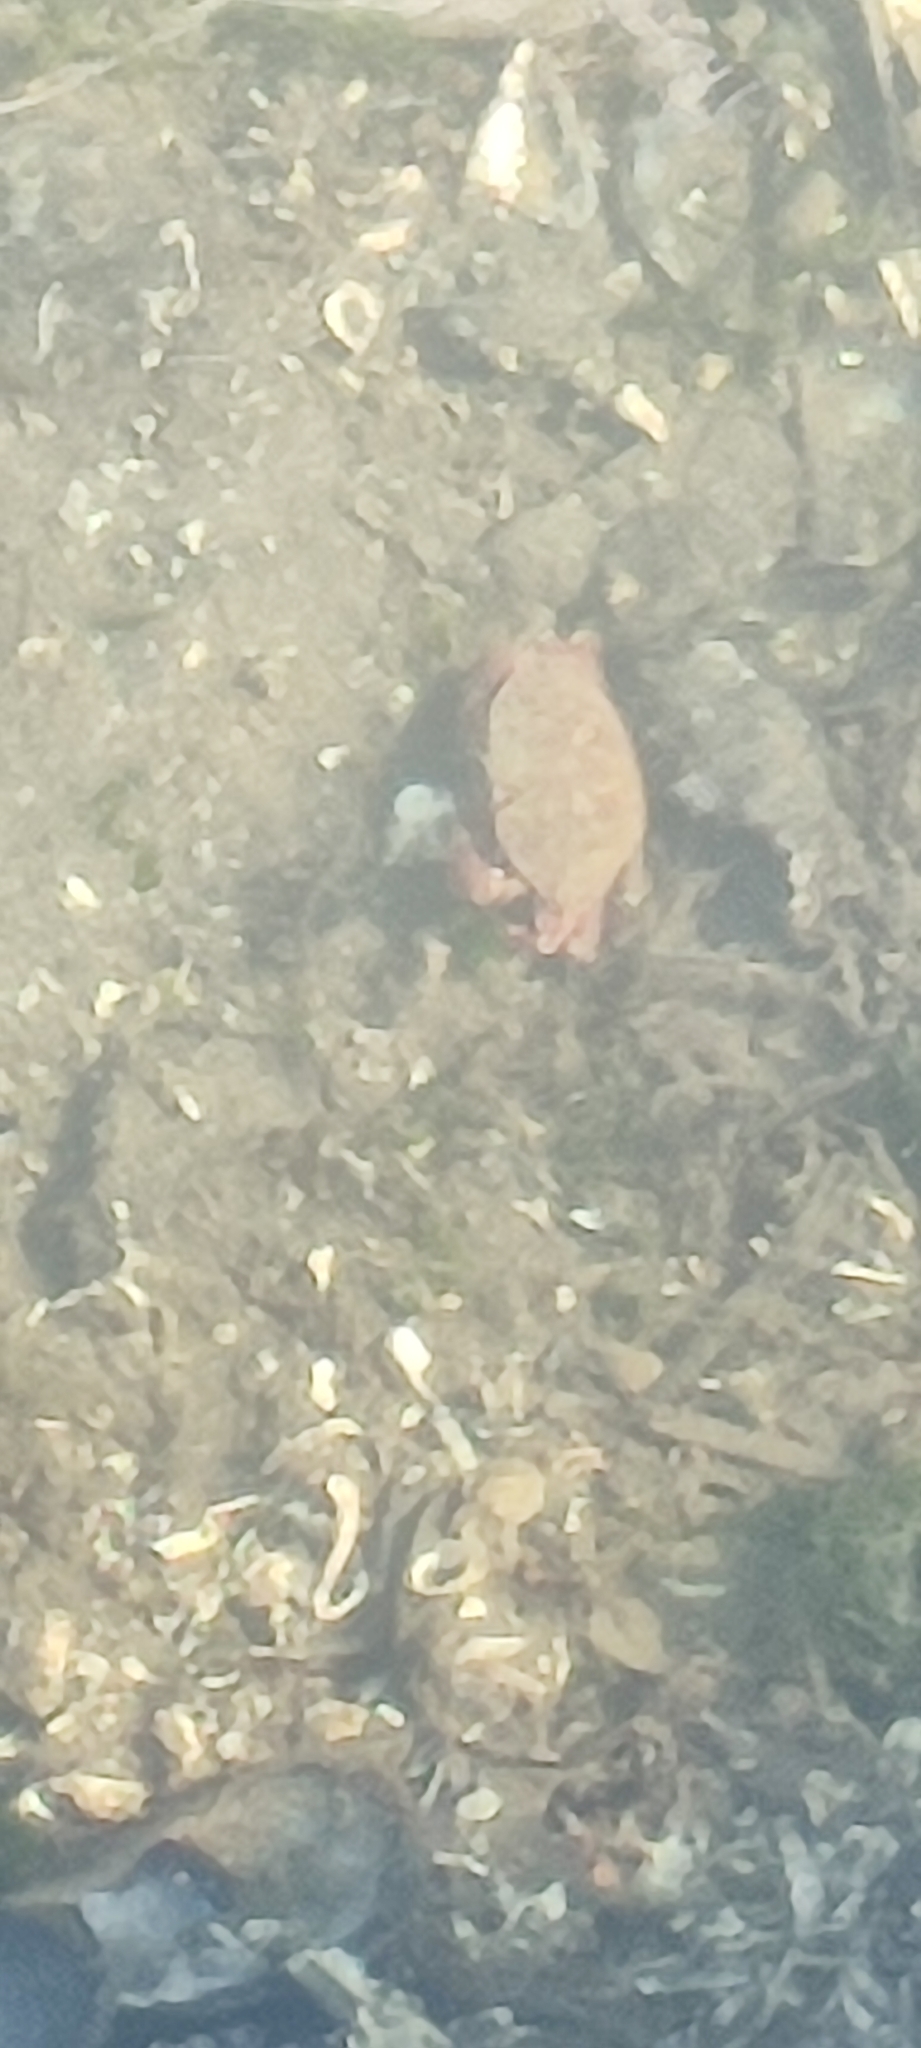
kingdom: Animalia
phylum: Arthropoda
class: Malacostraca
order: Decapoda
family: Cancridae
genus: Metacarcinus
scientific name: Metacarcinus gracilis
